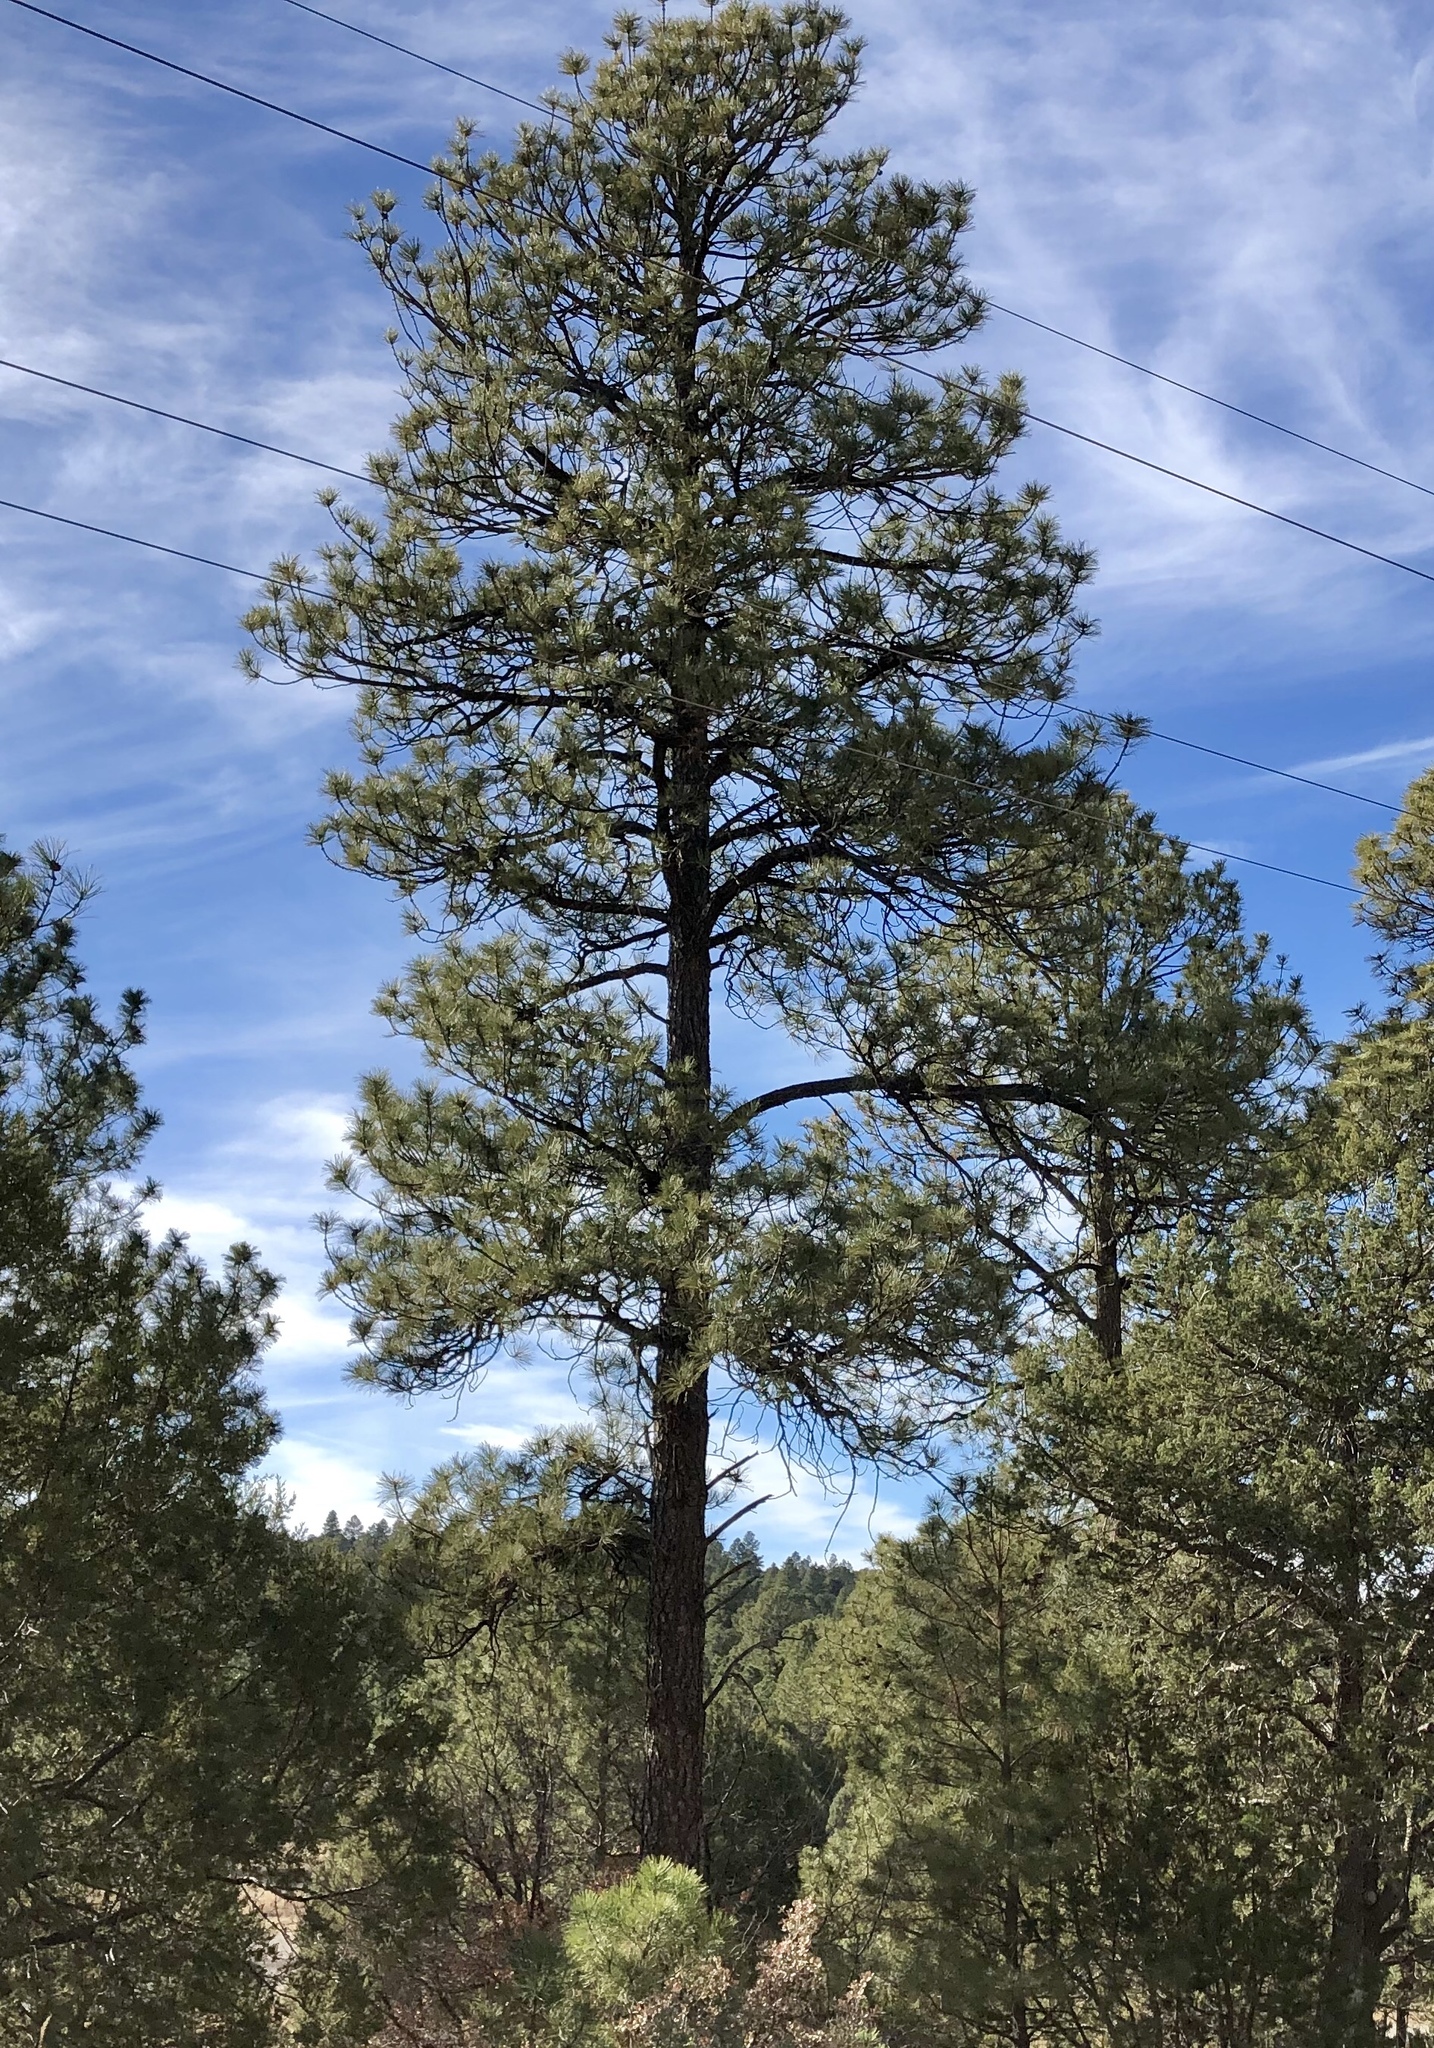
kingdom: Plantae
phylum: Tracheophyta
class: Pinopsida
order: Pinales
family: Pinaceae
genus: Pinus
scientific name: Pinus ponderosa
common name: Western yellow-pine
